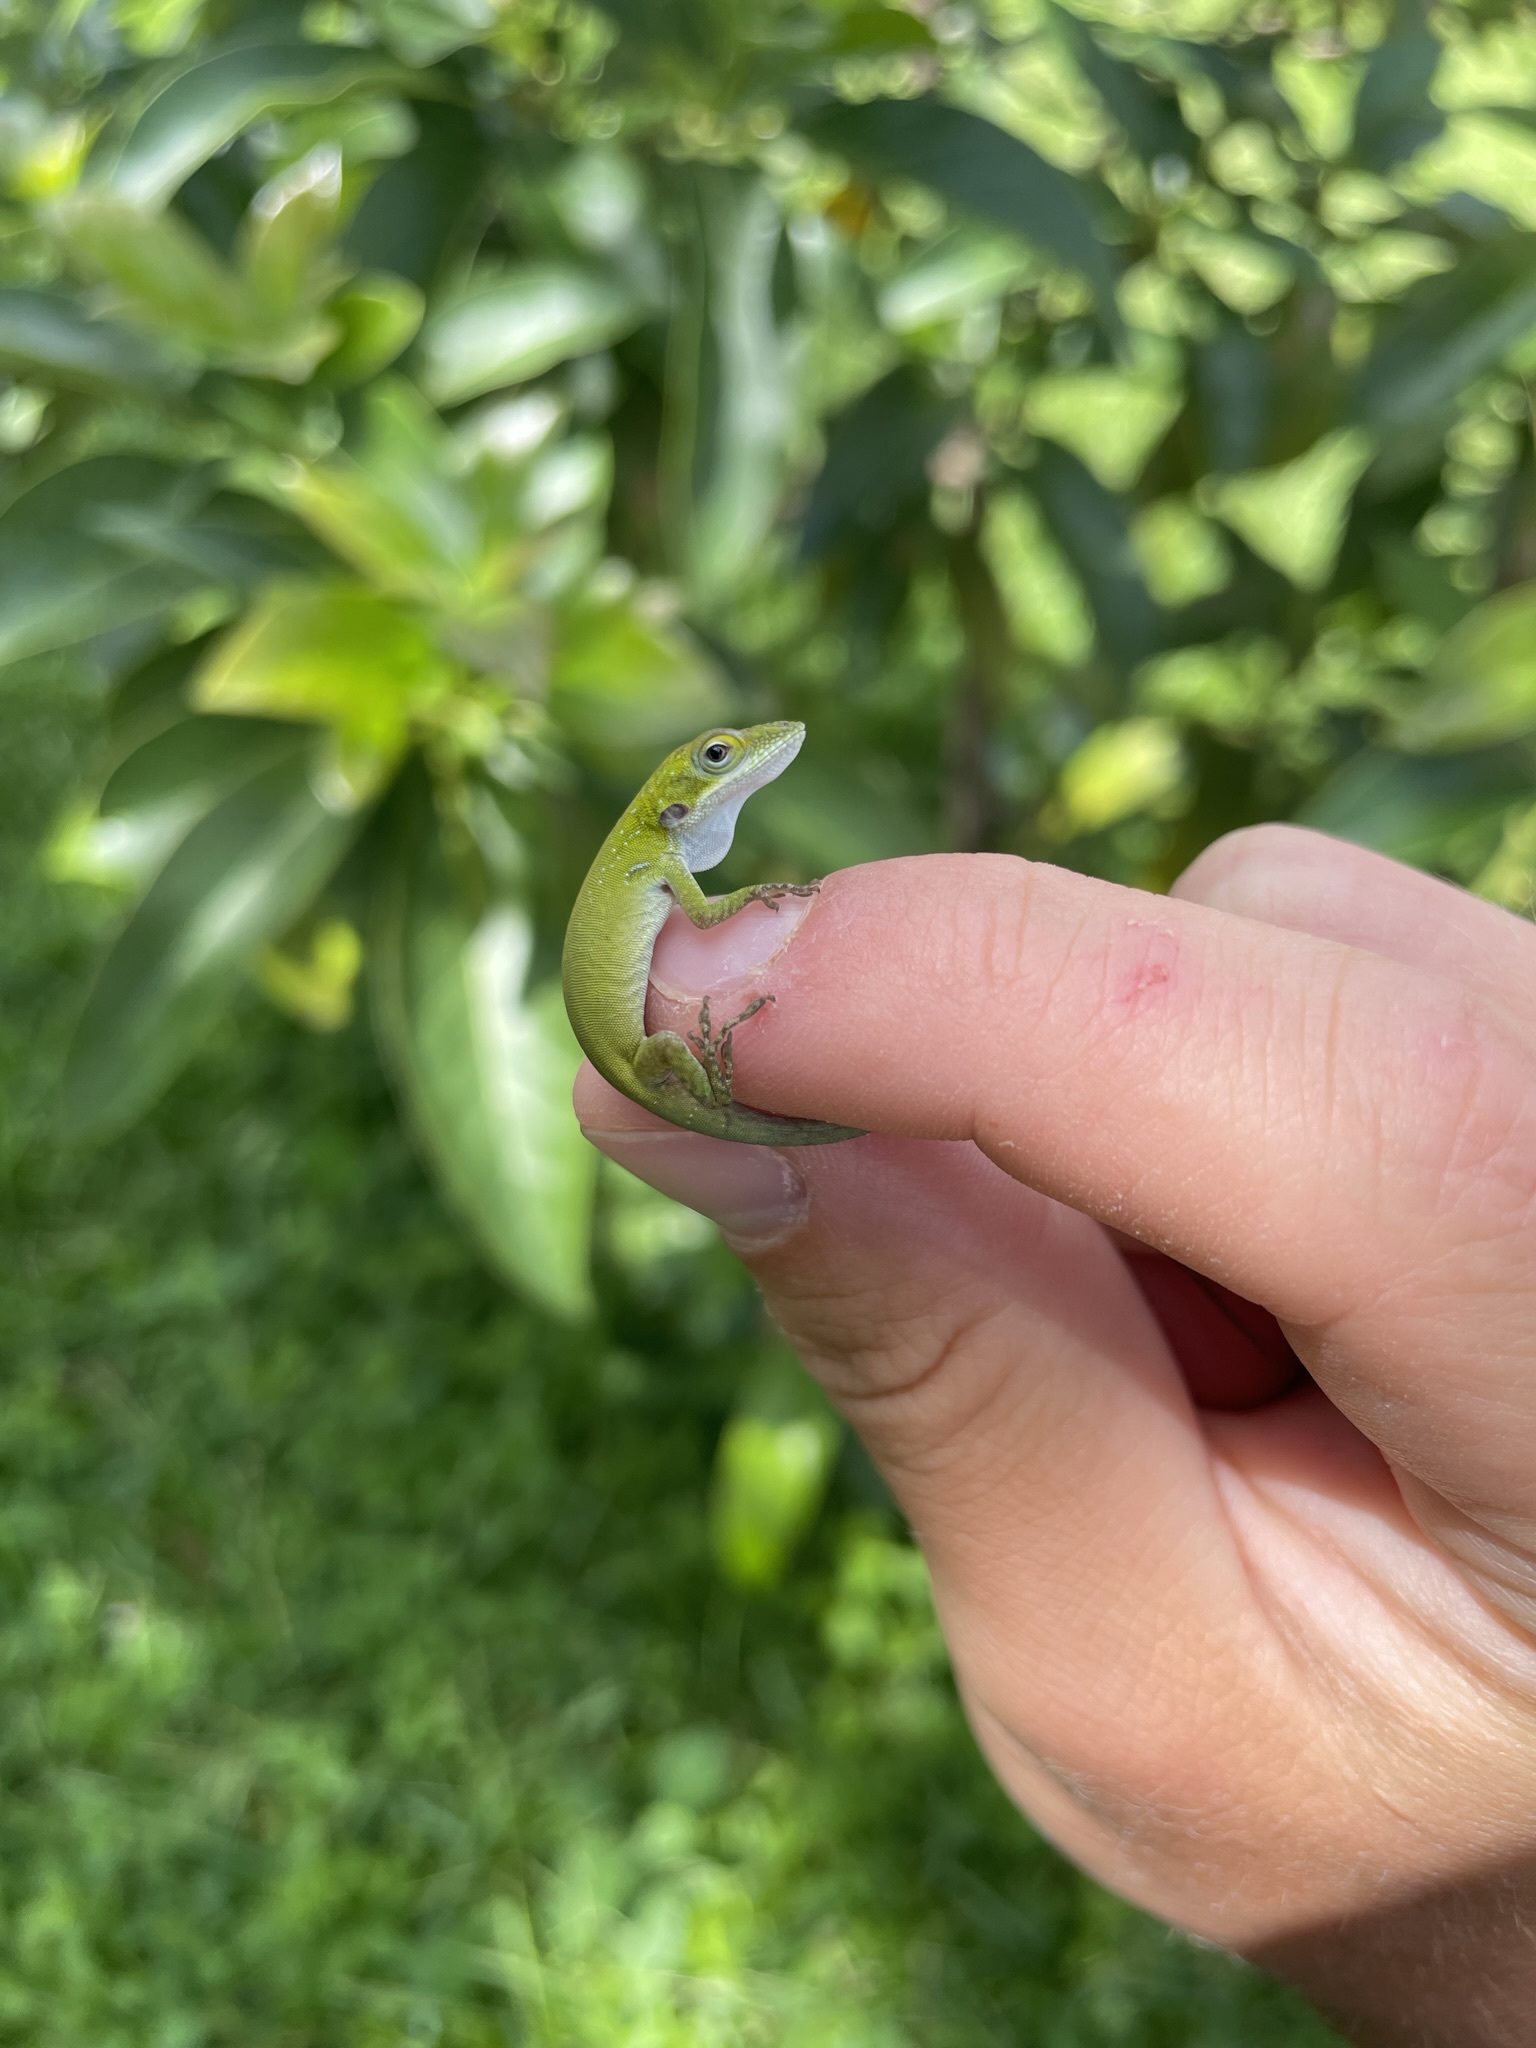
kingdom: Animalia
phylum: Chordata
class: Squamata
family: Dactyloidae
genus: Anolis
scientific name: Anolis allisoni
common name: Allison's anole
